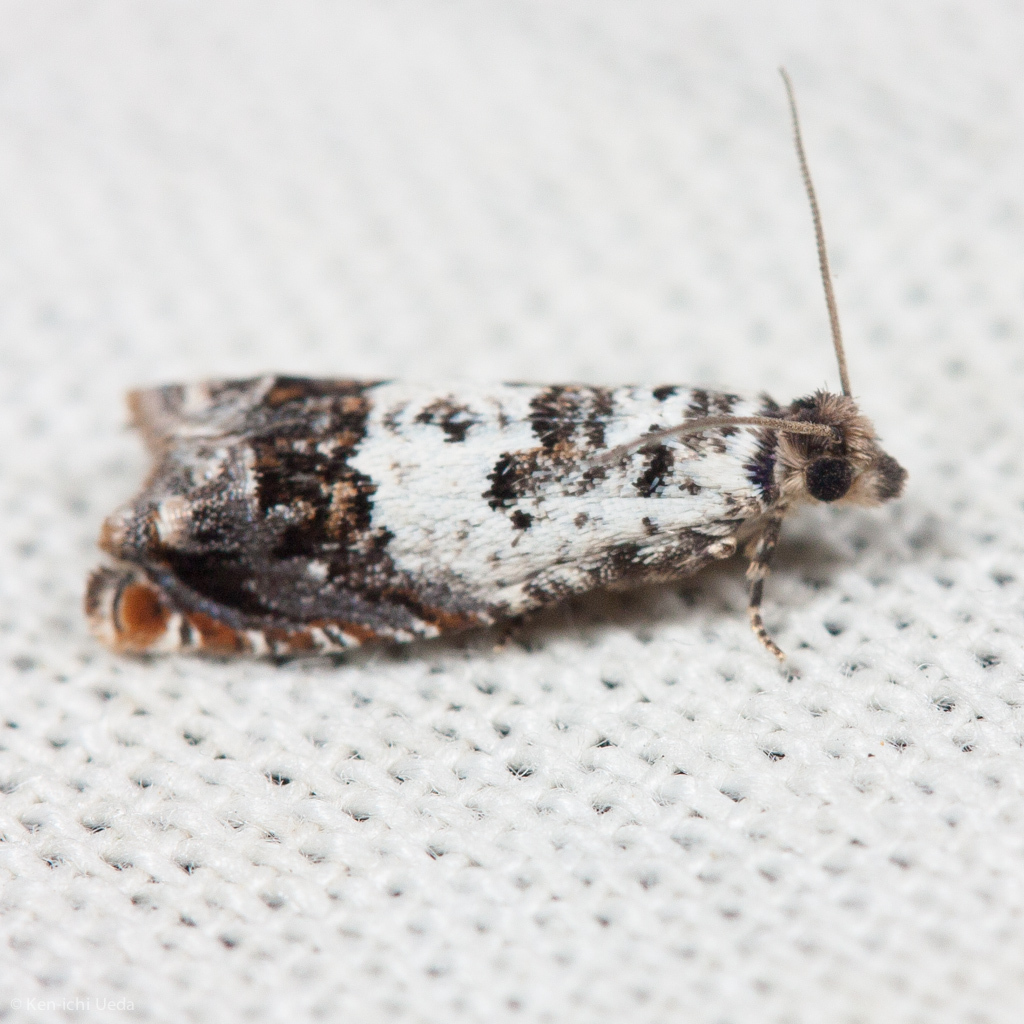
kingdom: Animalia
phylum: Arthropoda
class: Insecta
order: Lepidoptera
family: Tortricidae
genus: Epinotia
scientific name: Epinotia nigralbana
